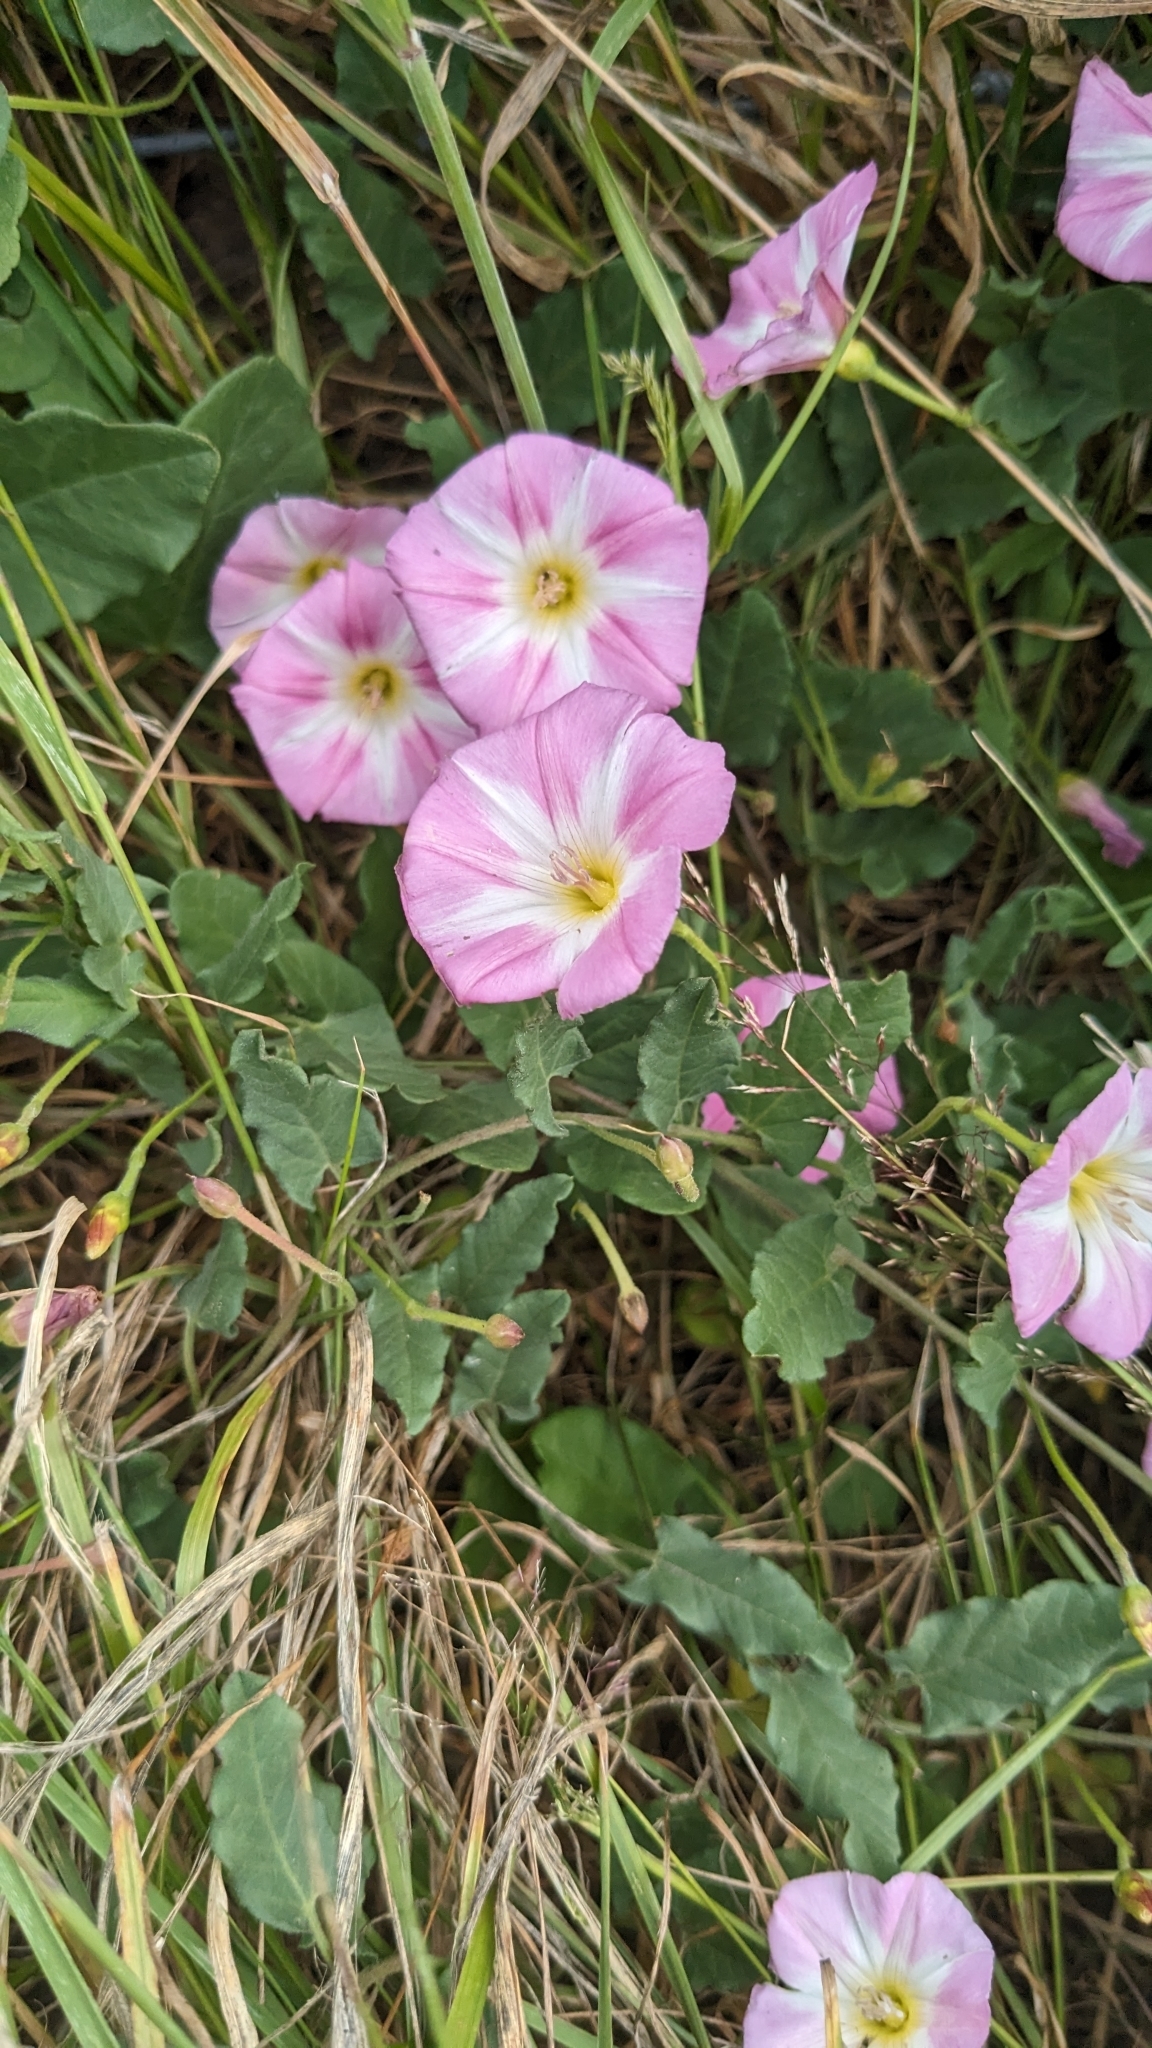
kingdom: Plantae
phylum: Tracheophyta
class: Magnoliopsida
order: Solanales
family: Convolvulaceae
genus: Convolvulus
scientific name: Convolvulus arvensis
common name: Field bindweed
